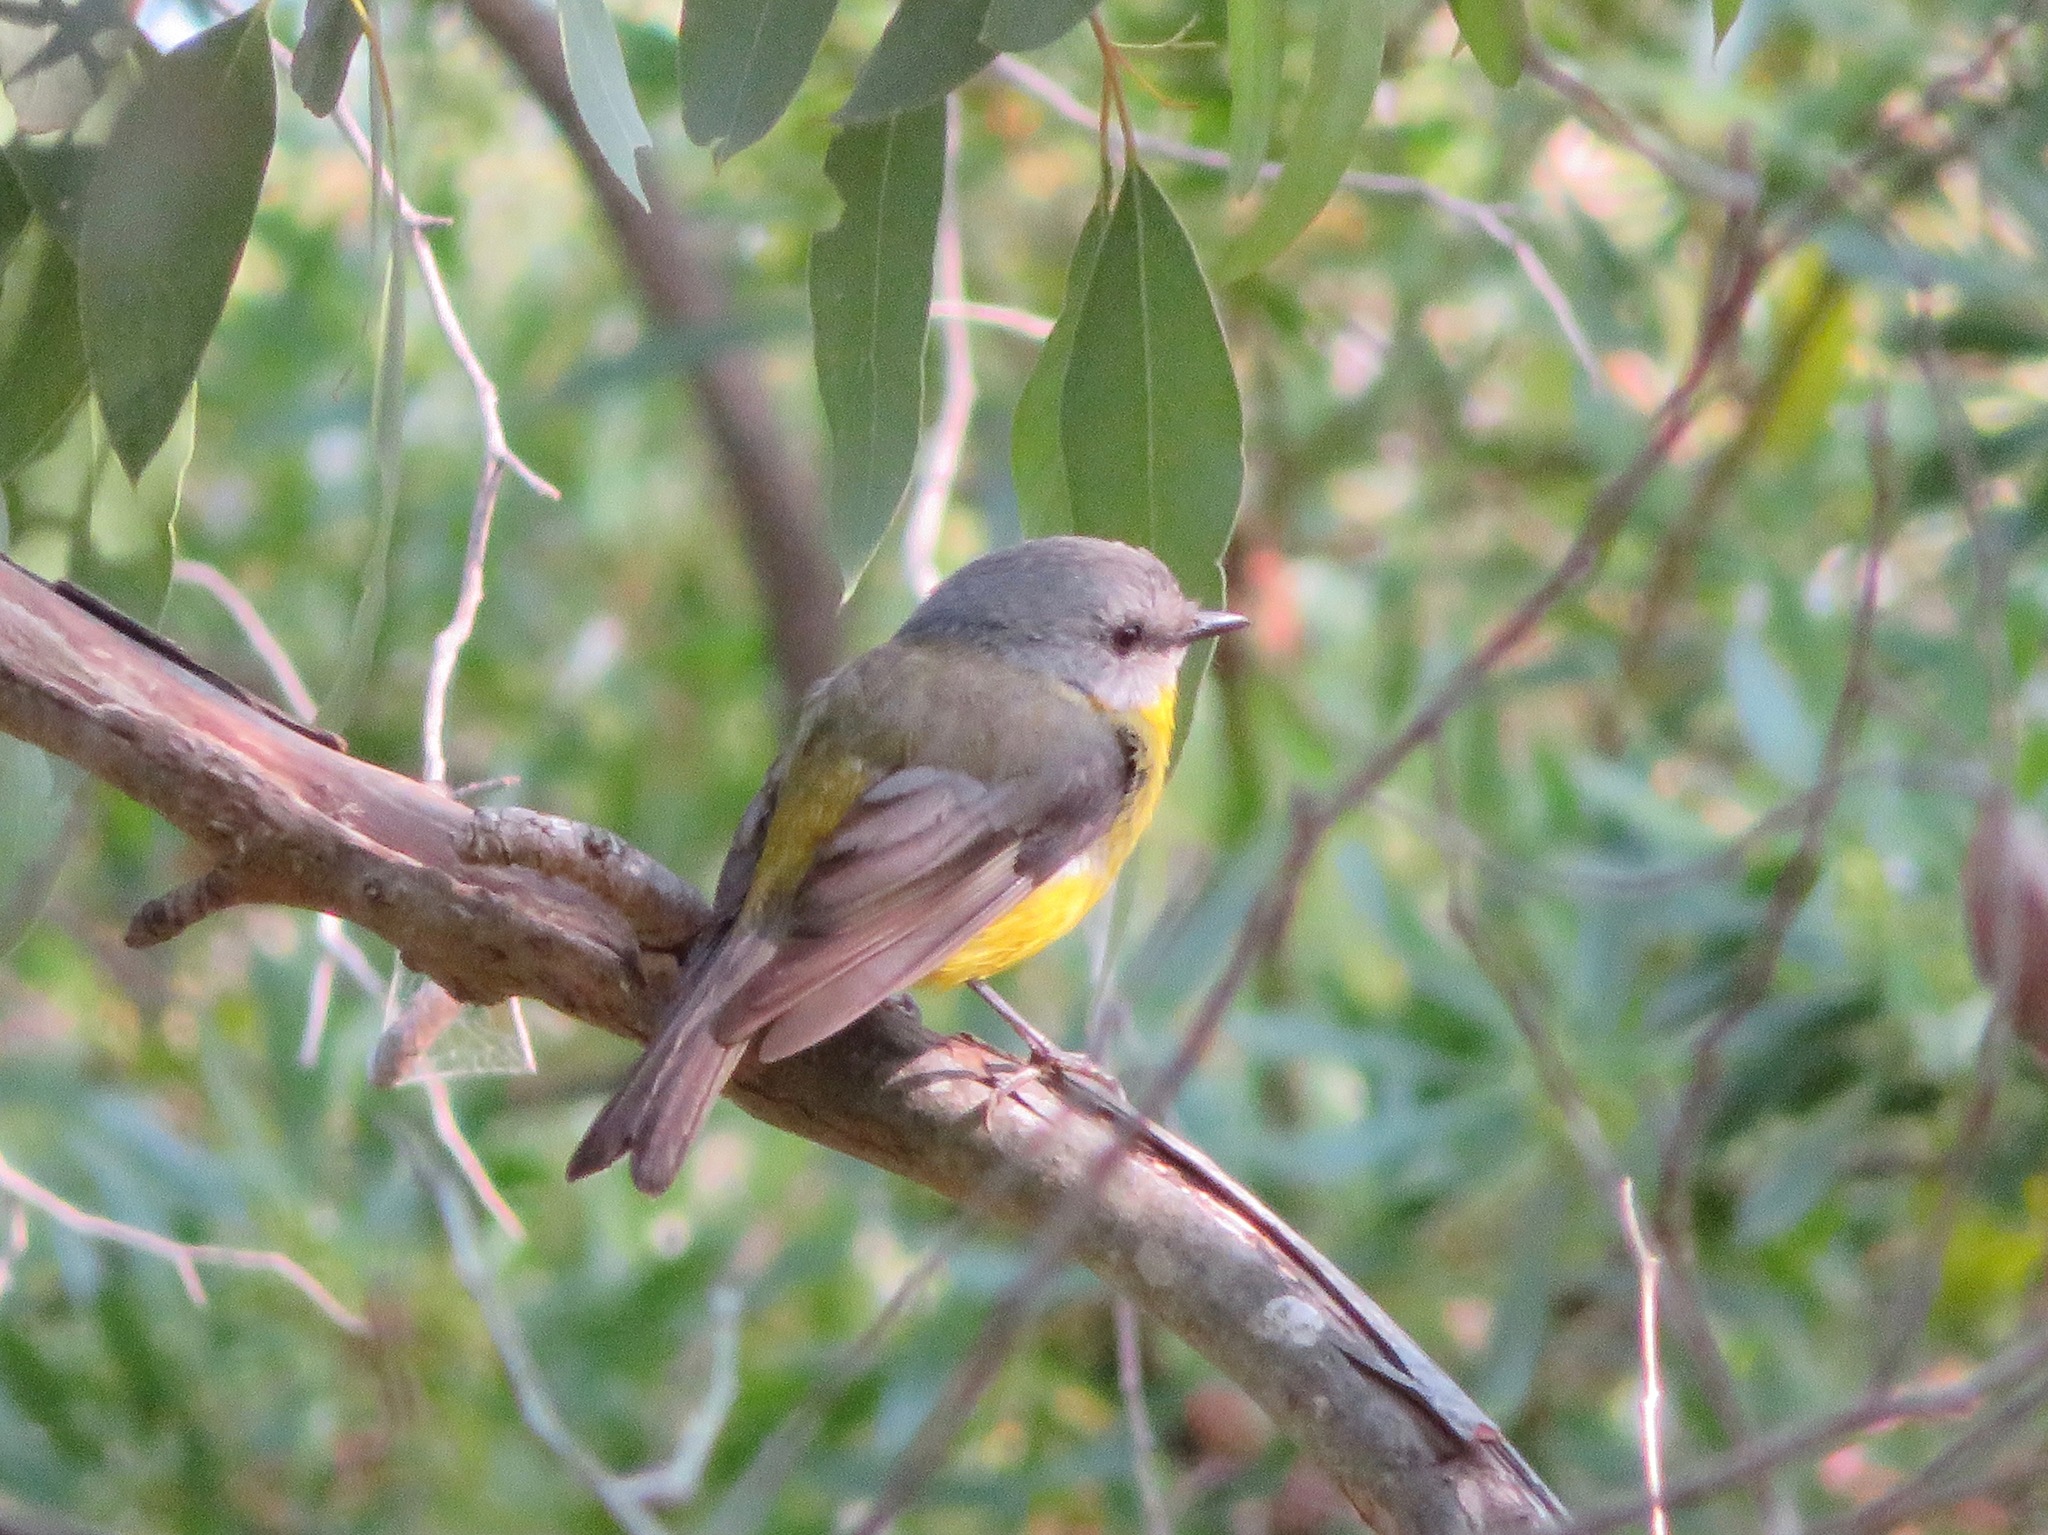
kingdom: Animalia
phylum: Chordata
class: Aves
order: Passeriformes
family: Petroicidae
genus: Eopsaltria
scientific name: Eopsaltria australis
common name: Eastern yellow robin
